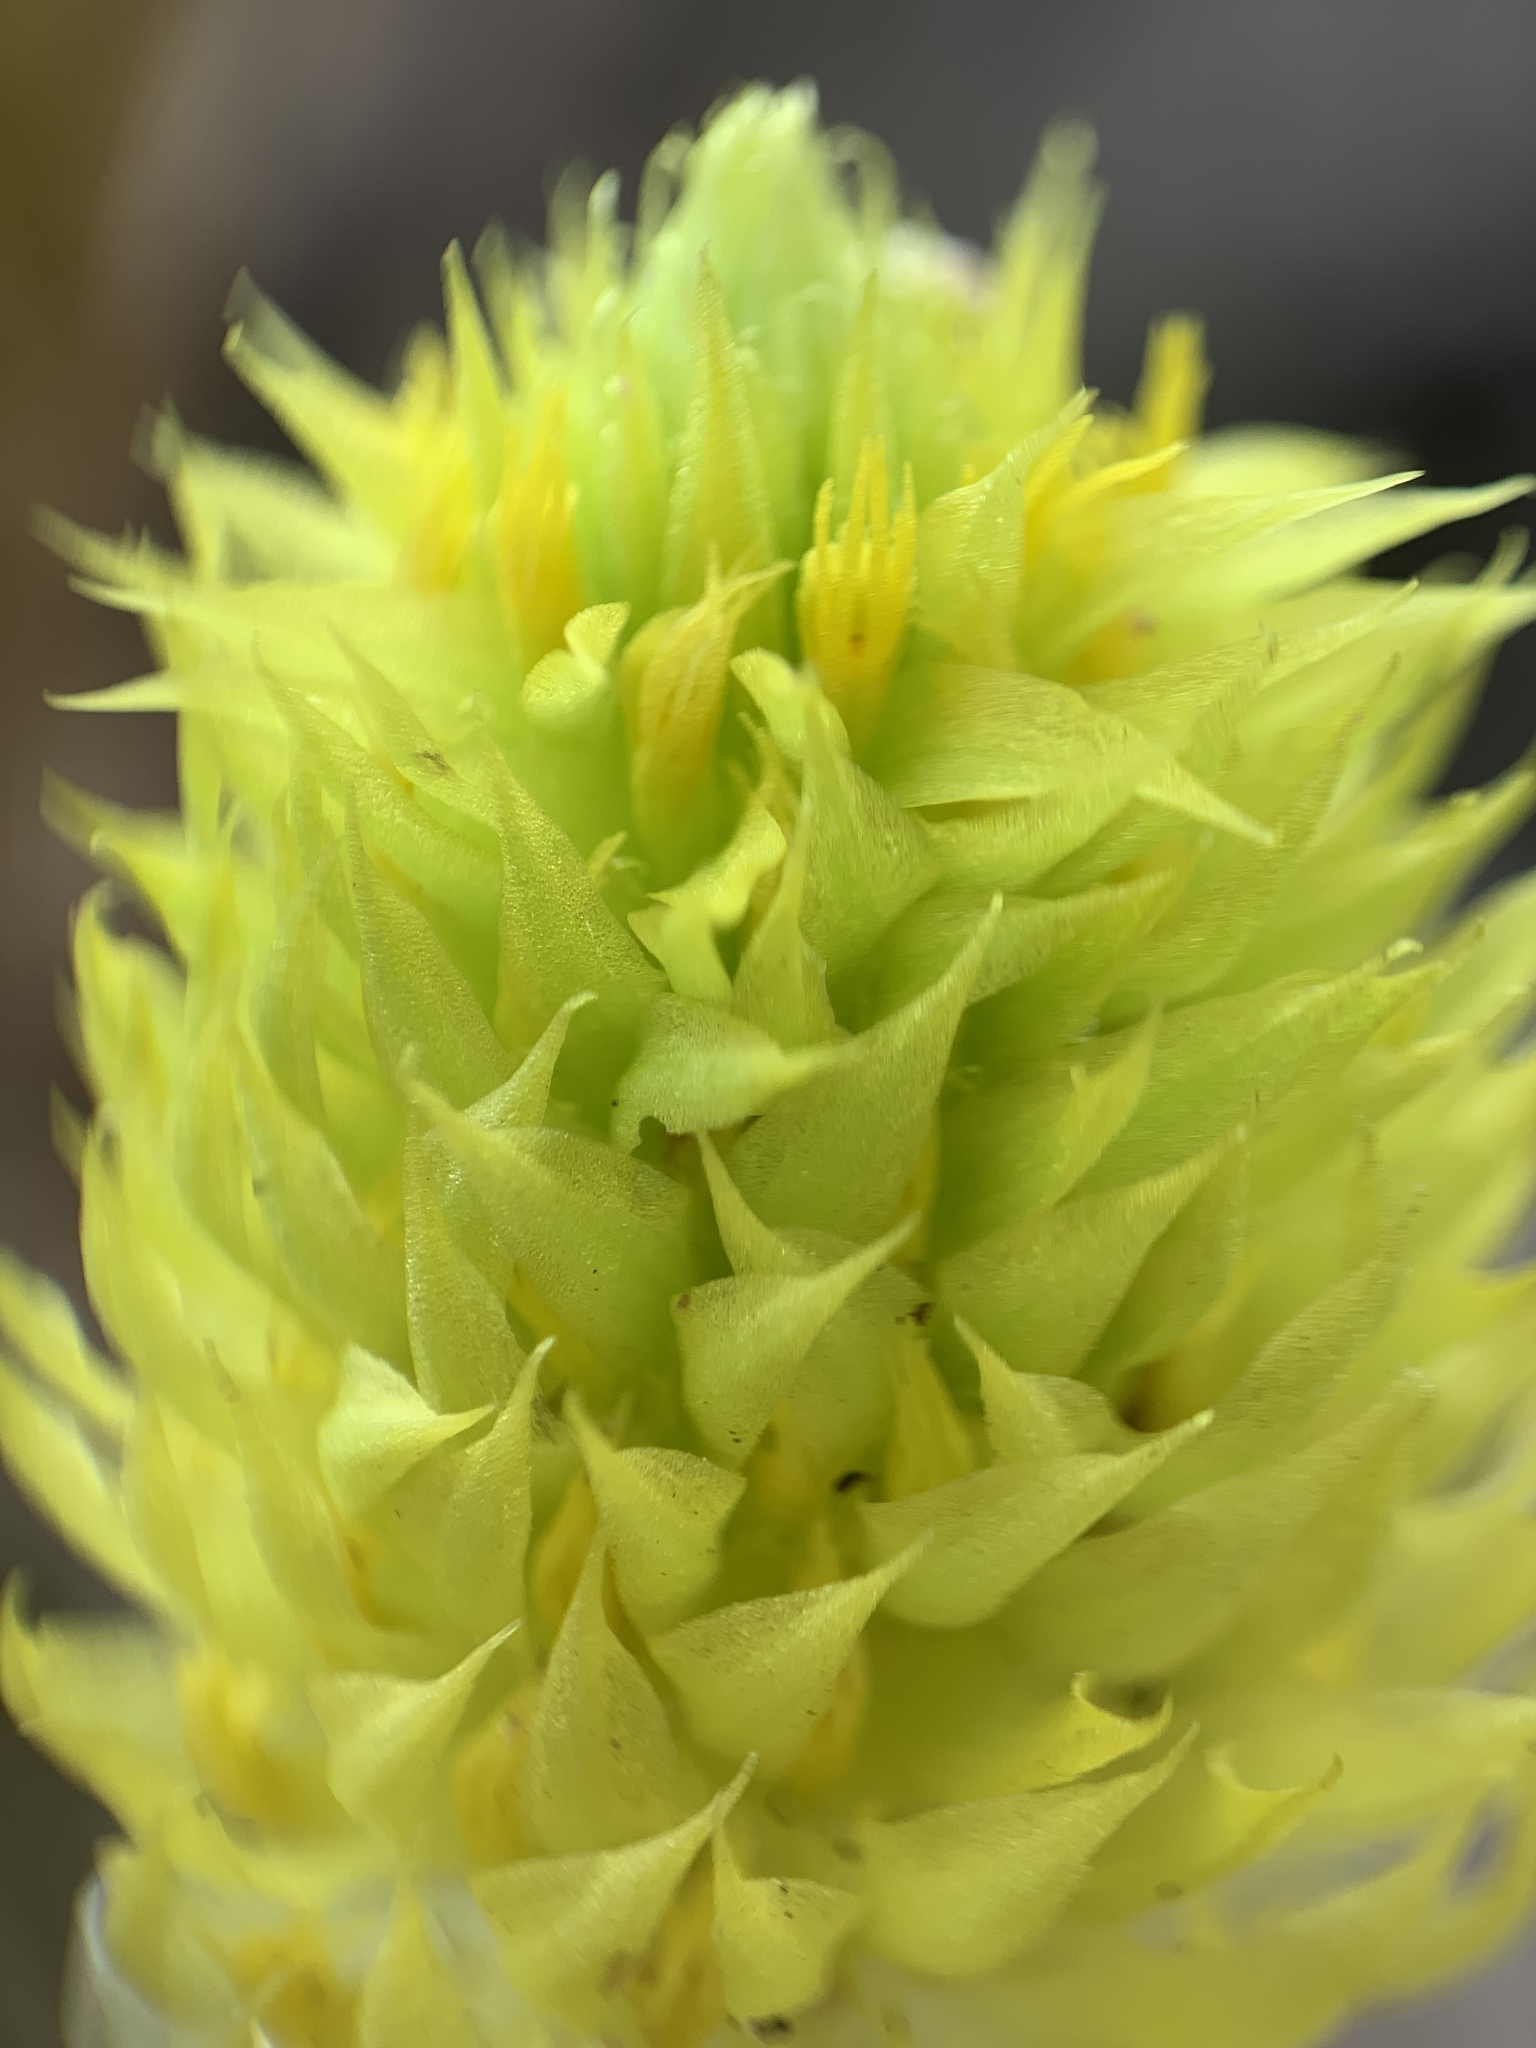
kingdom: Plantae
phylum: Tracheophyta
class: Magnoliopsida
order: Fabales
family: Polygalaceae
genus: Polygala
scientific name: Polygala nana
